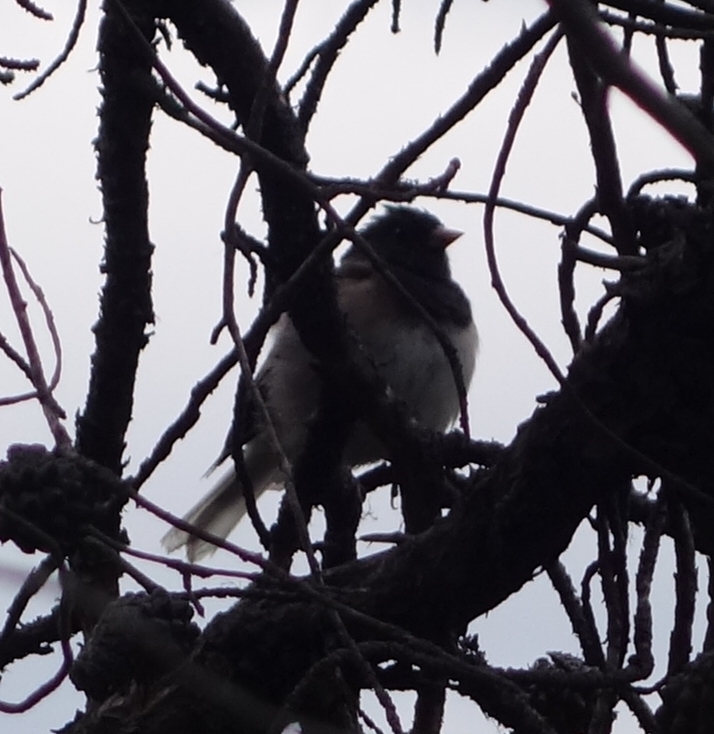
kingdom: Animalia
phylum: Chordata
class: Aves
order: Passeriformes
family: Passerellidae
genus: Junco
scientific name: Junco hyemalis
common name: Dark-eyed junco
